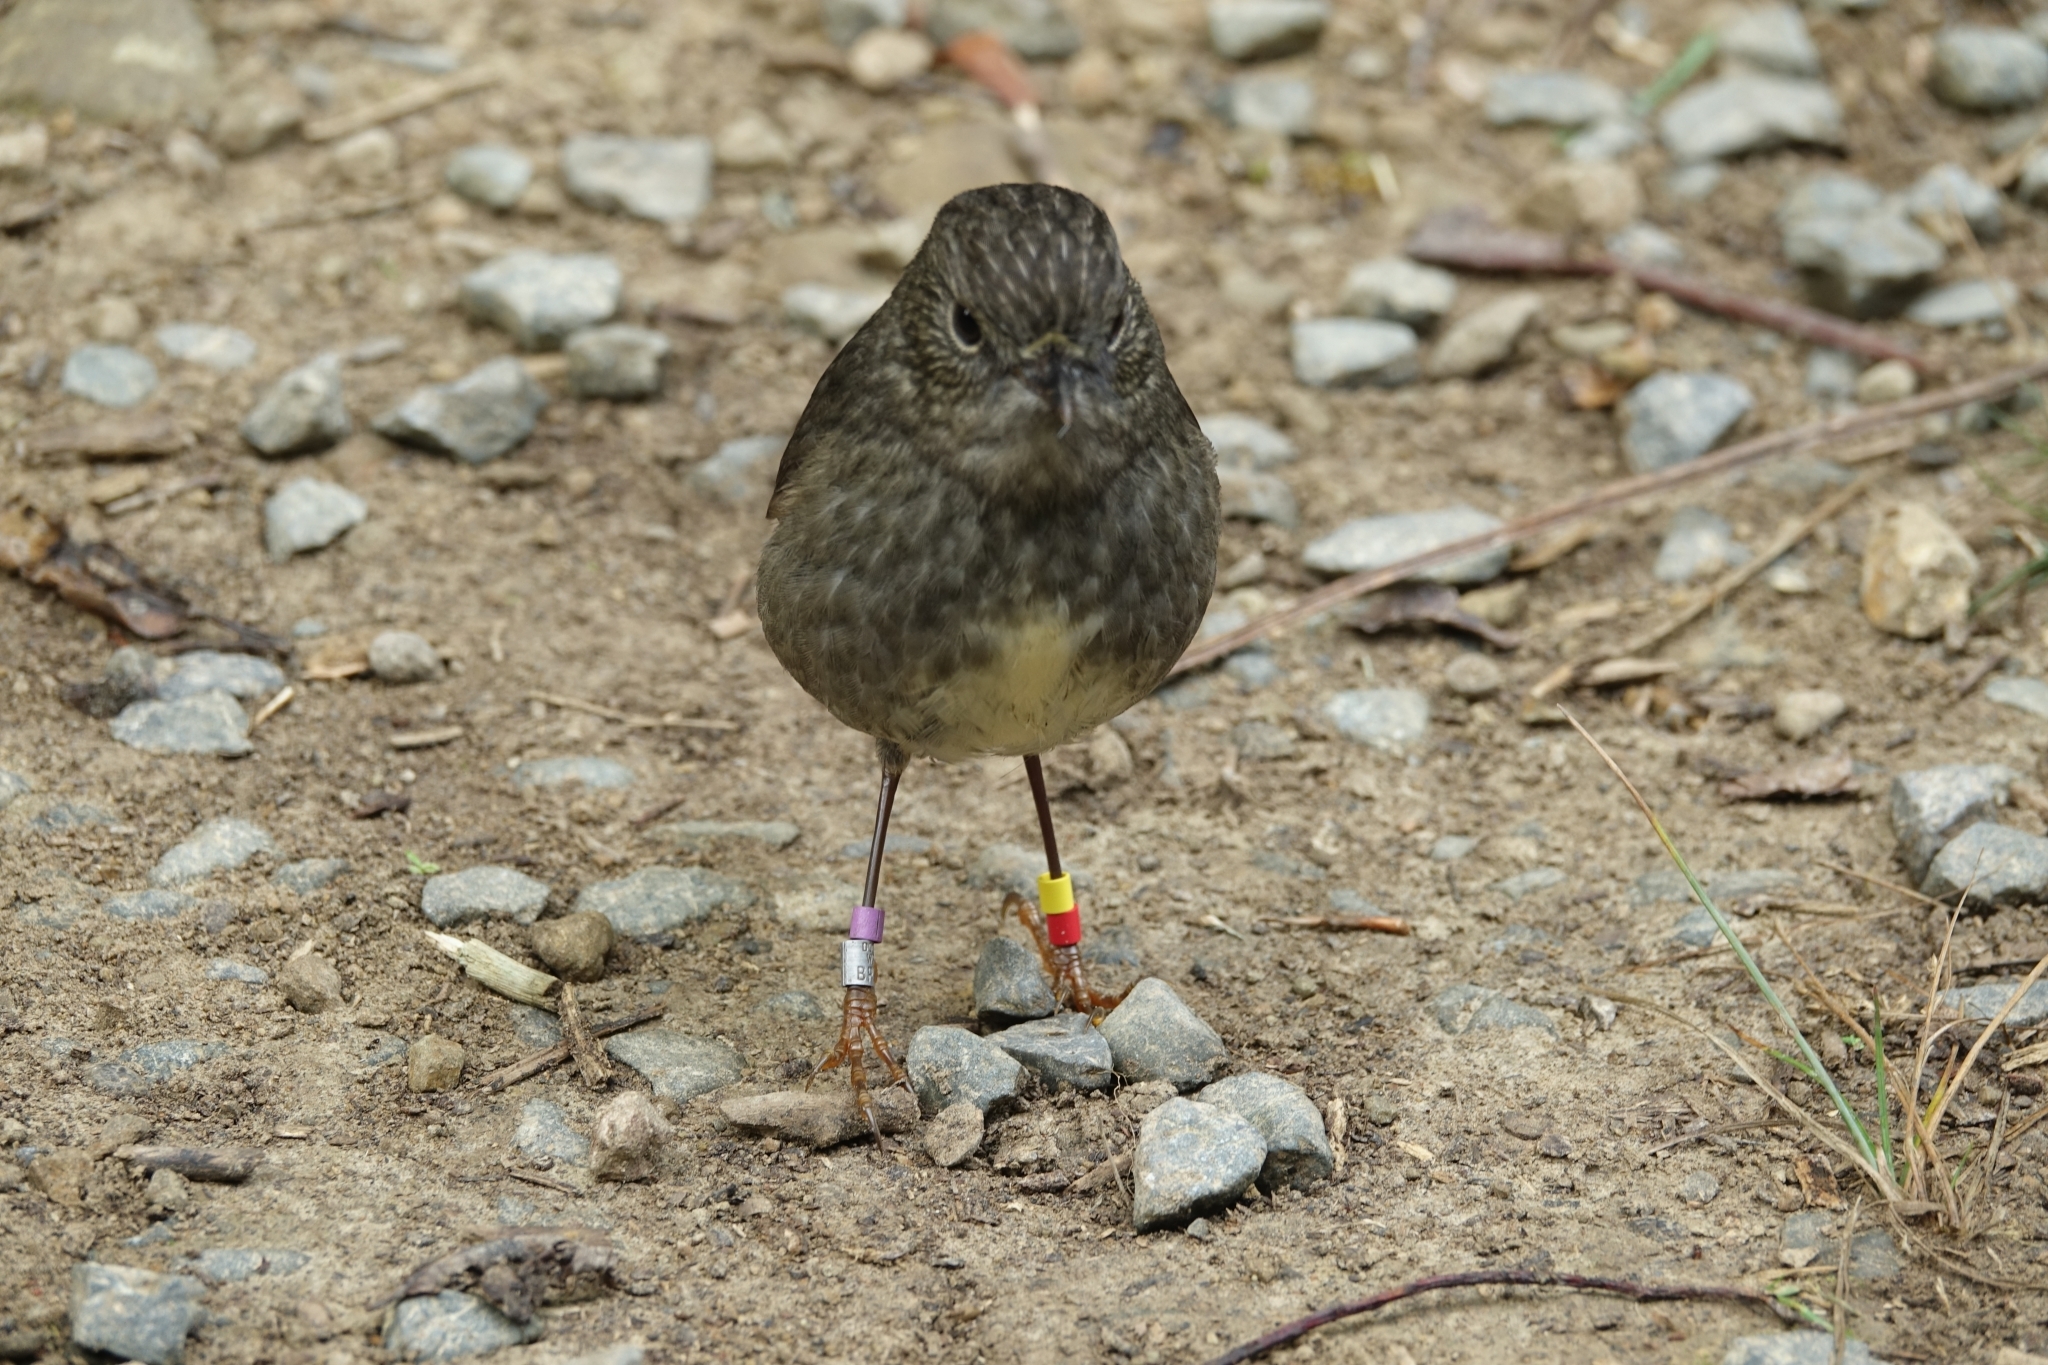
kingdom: Animalia
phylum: Chordata
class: Aves
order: Passeriformes
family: Petroicidae
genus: Petroica
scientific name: Petroica australis
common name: New zealand robin
